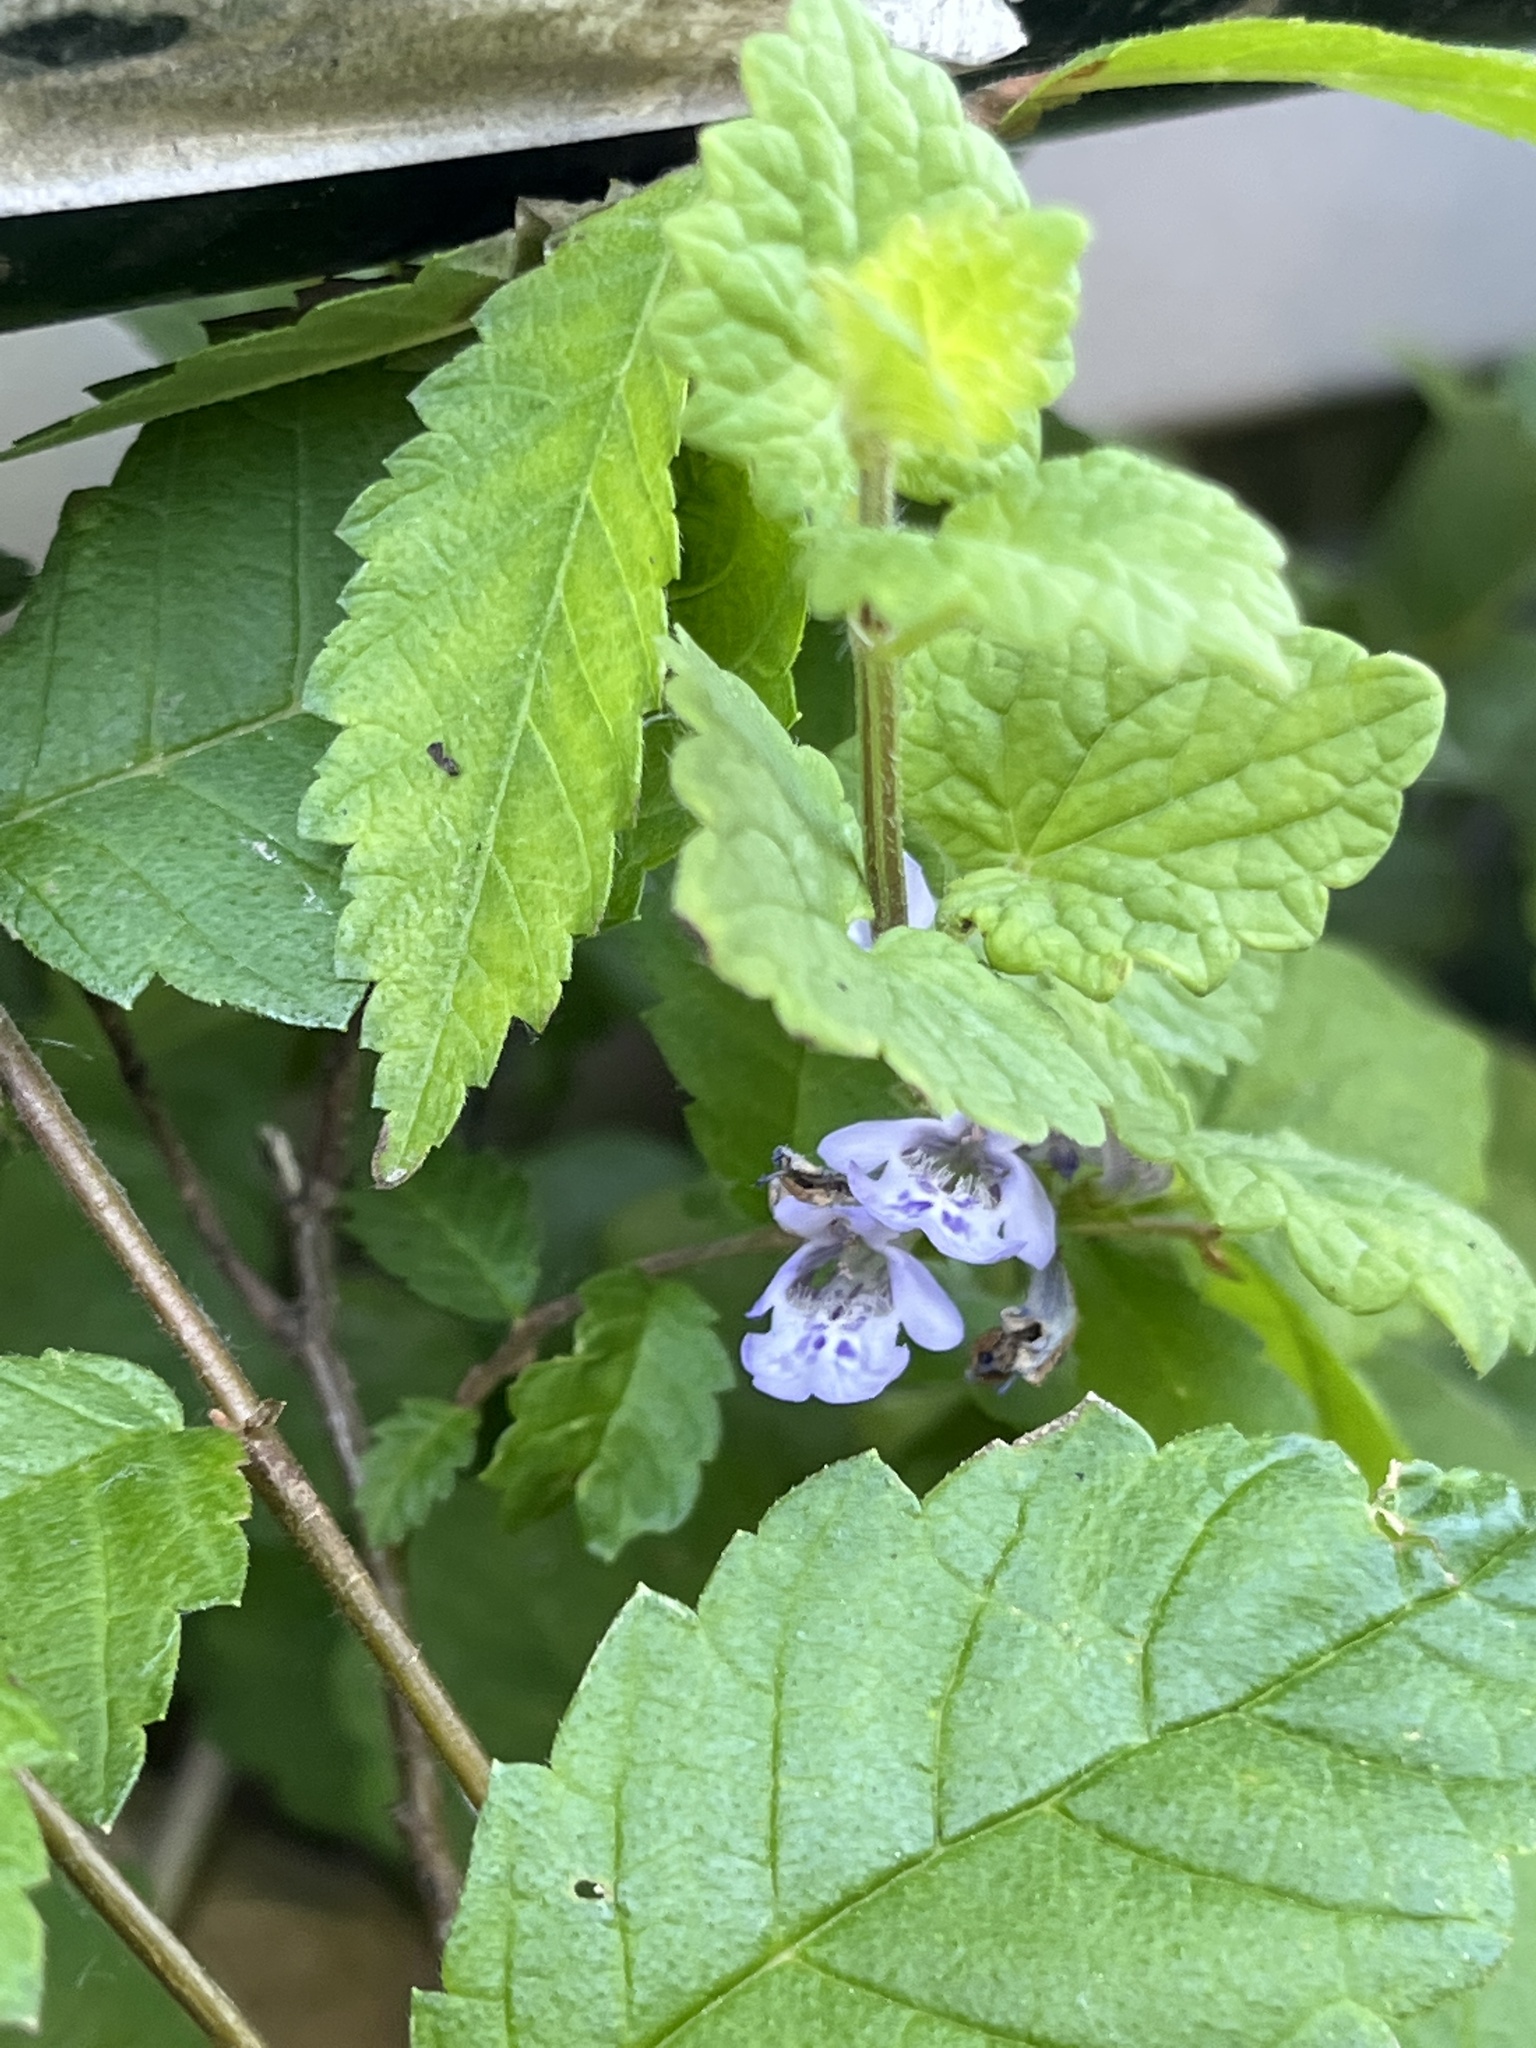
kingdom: Plantae
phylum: Tracheophyta
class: Magnoliopsida
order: Lamiales
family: Lamiaceae
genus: Glechoma
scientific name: Glechoma hederacea
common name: Ground ivy
